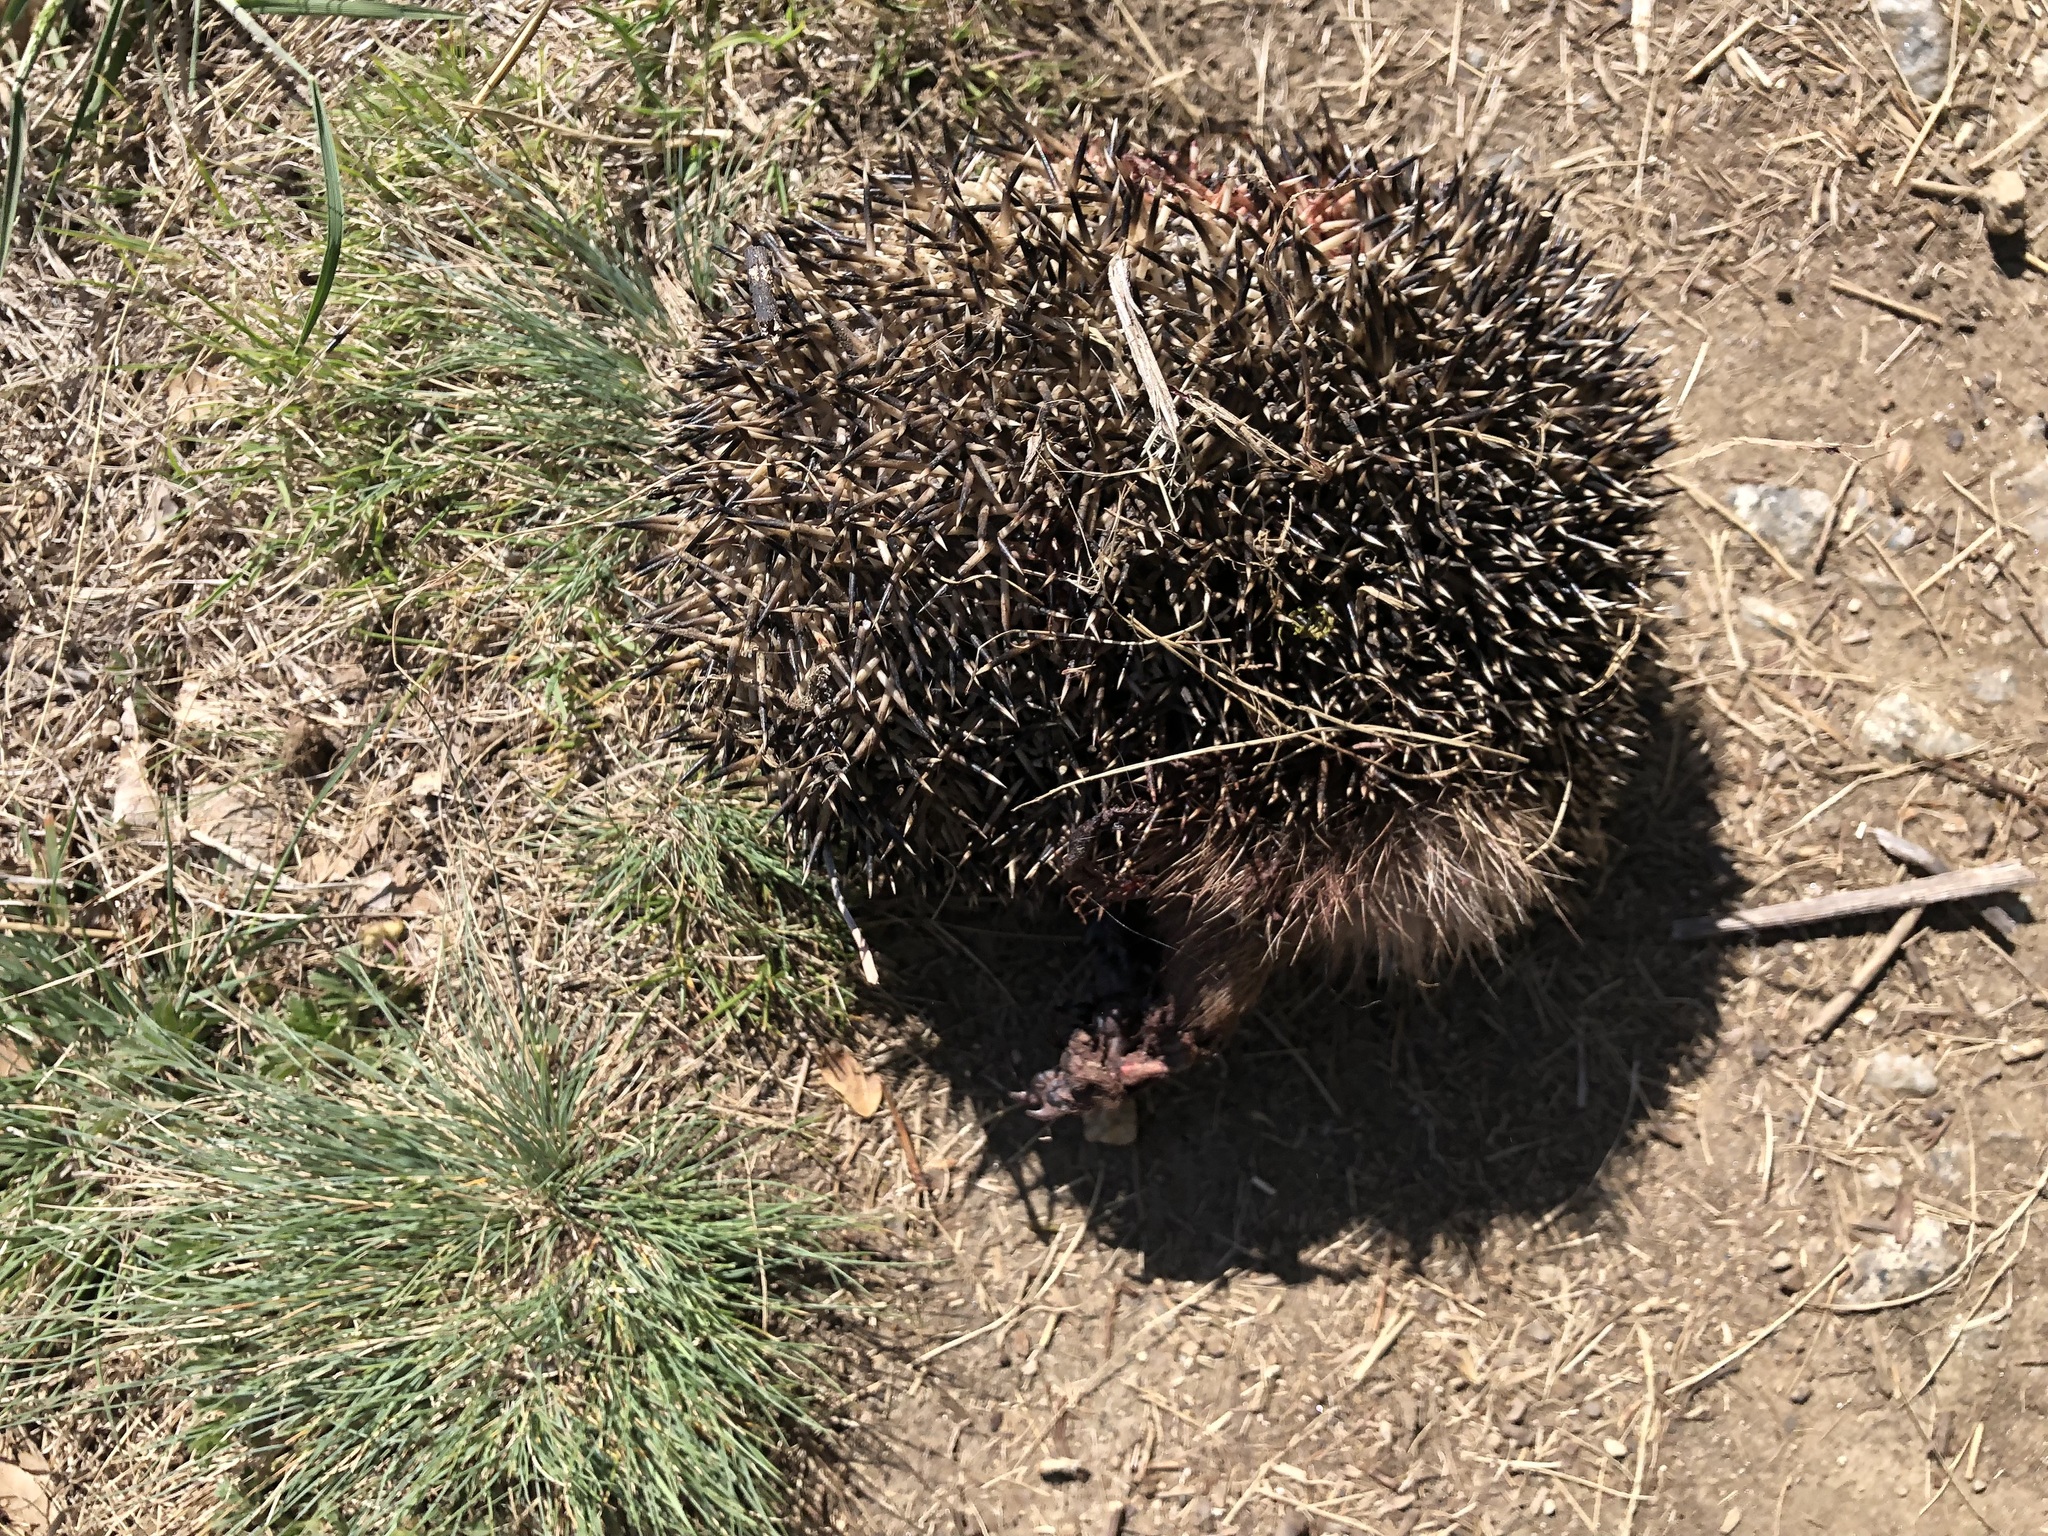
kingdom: Animalia
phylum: Chordata
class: Mammalia
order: Erinaceomorpha
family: Erinaceidae
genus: Erinaceus
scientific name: Erinaceus europaeus
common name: West european hedgehog
